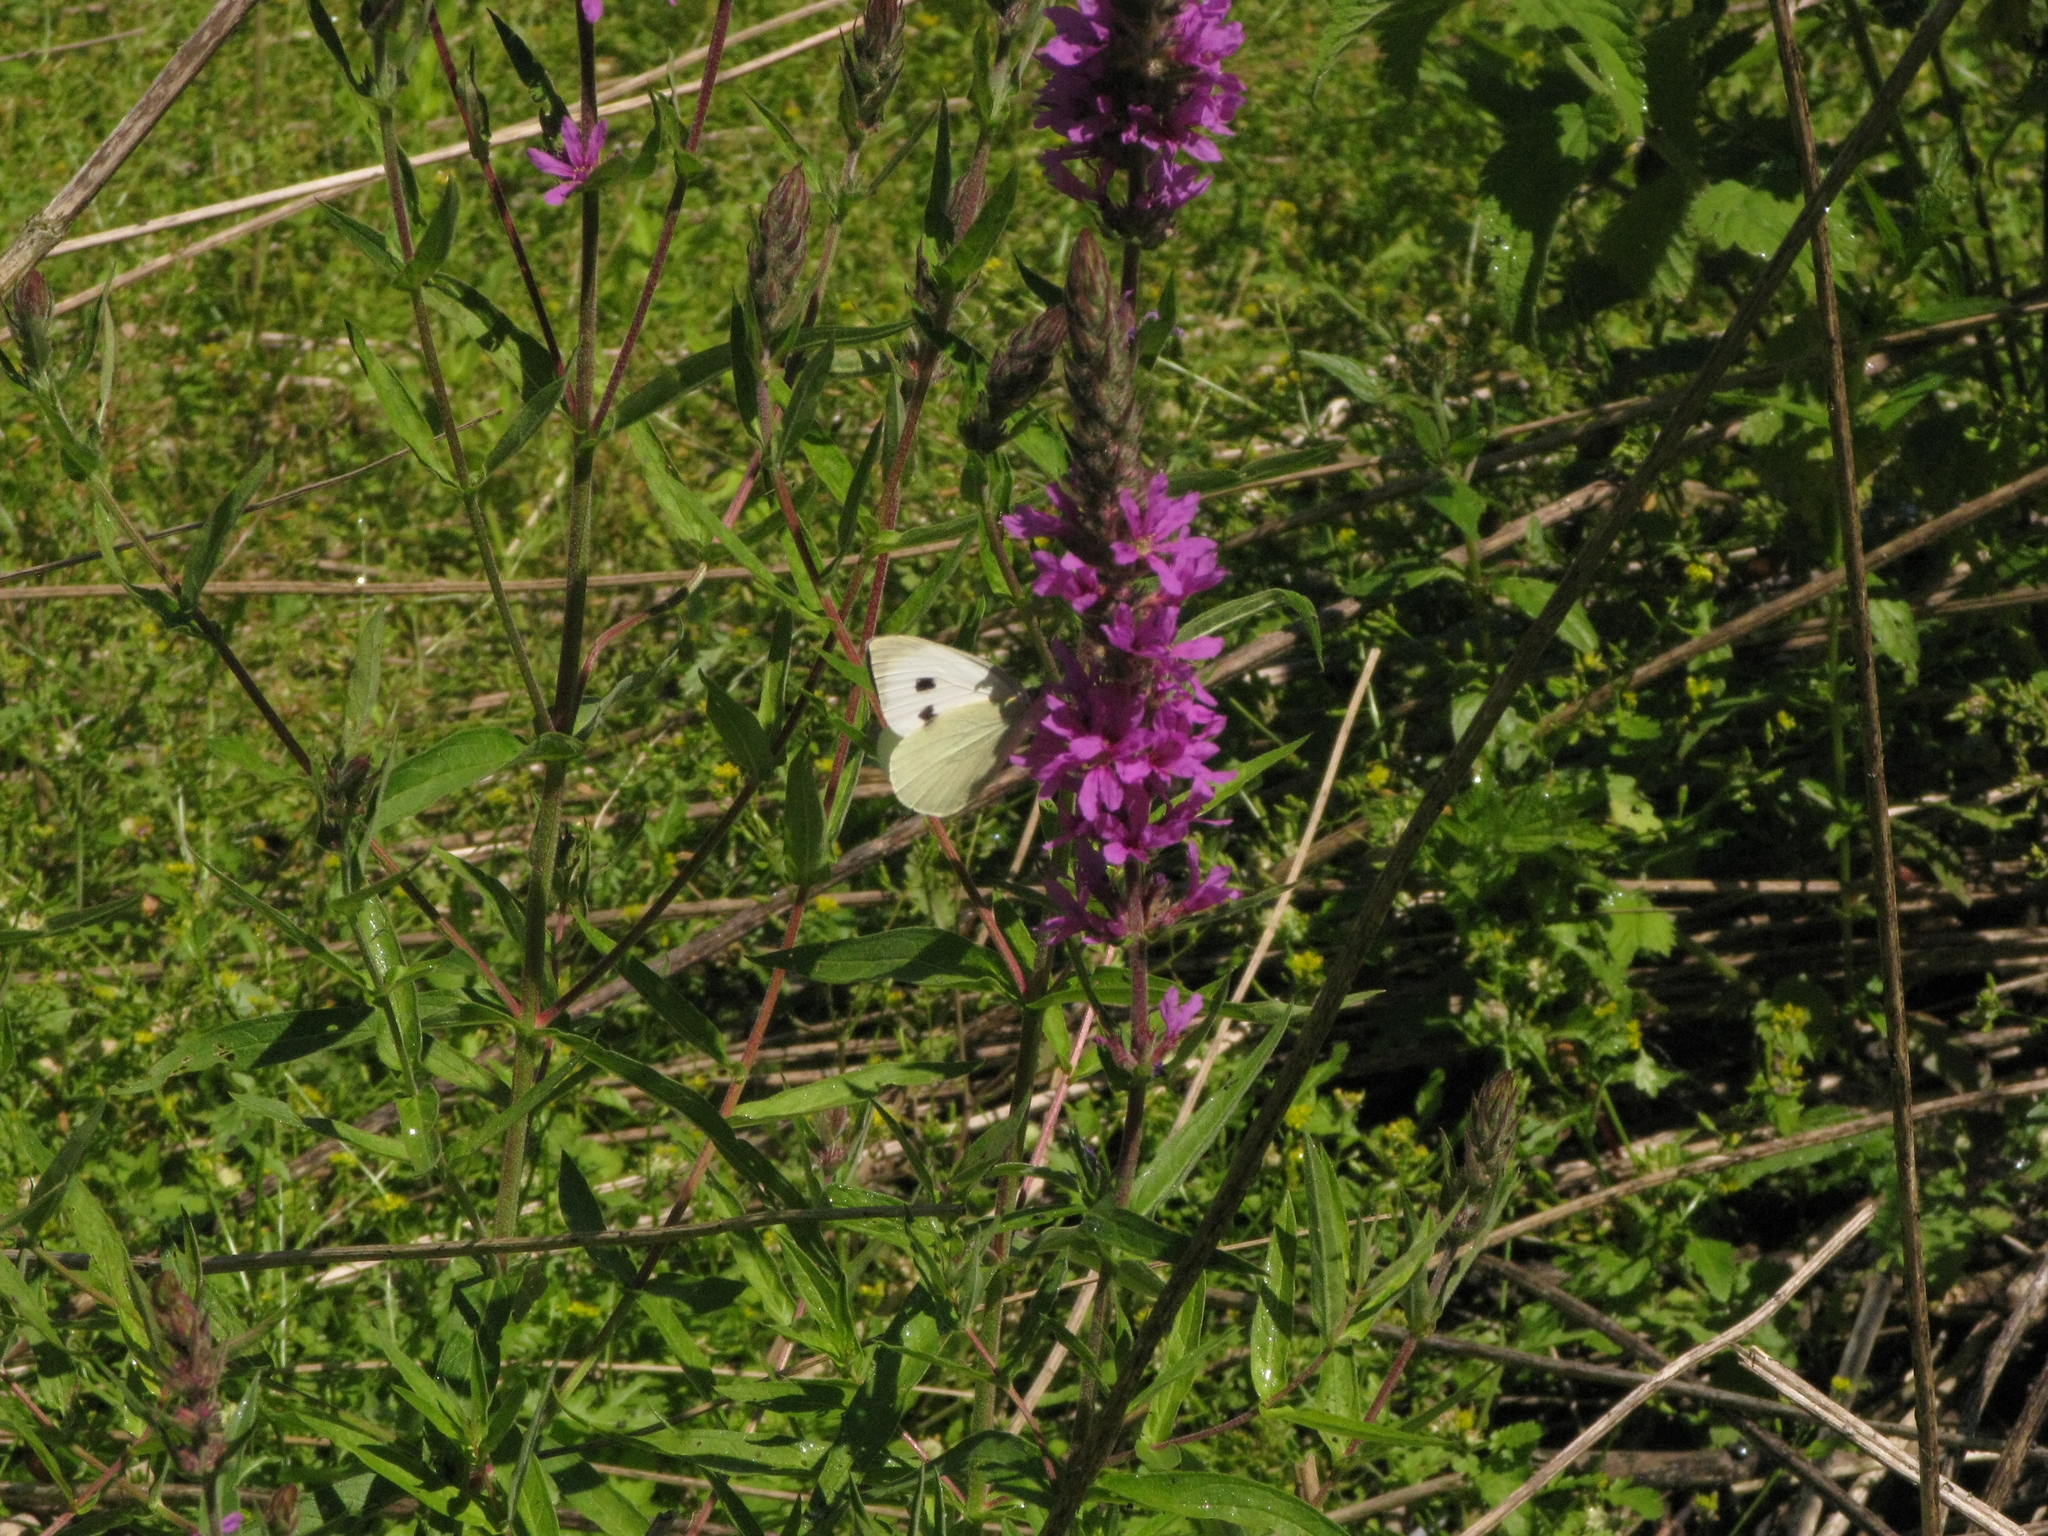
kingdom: Animalia
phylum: Arthropoda
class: Insecta
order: Lepidoptera
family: Pieridae
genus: Pieris
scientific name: Pieris brassicae
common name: Large white
